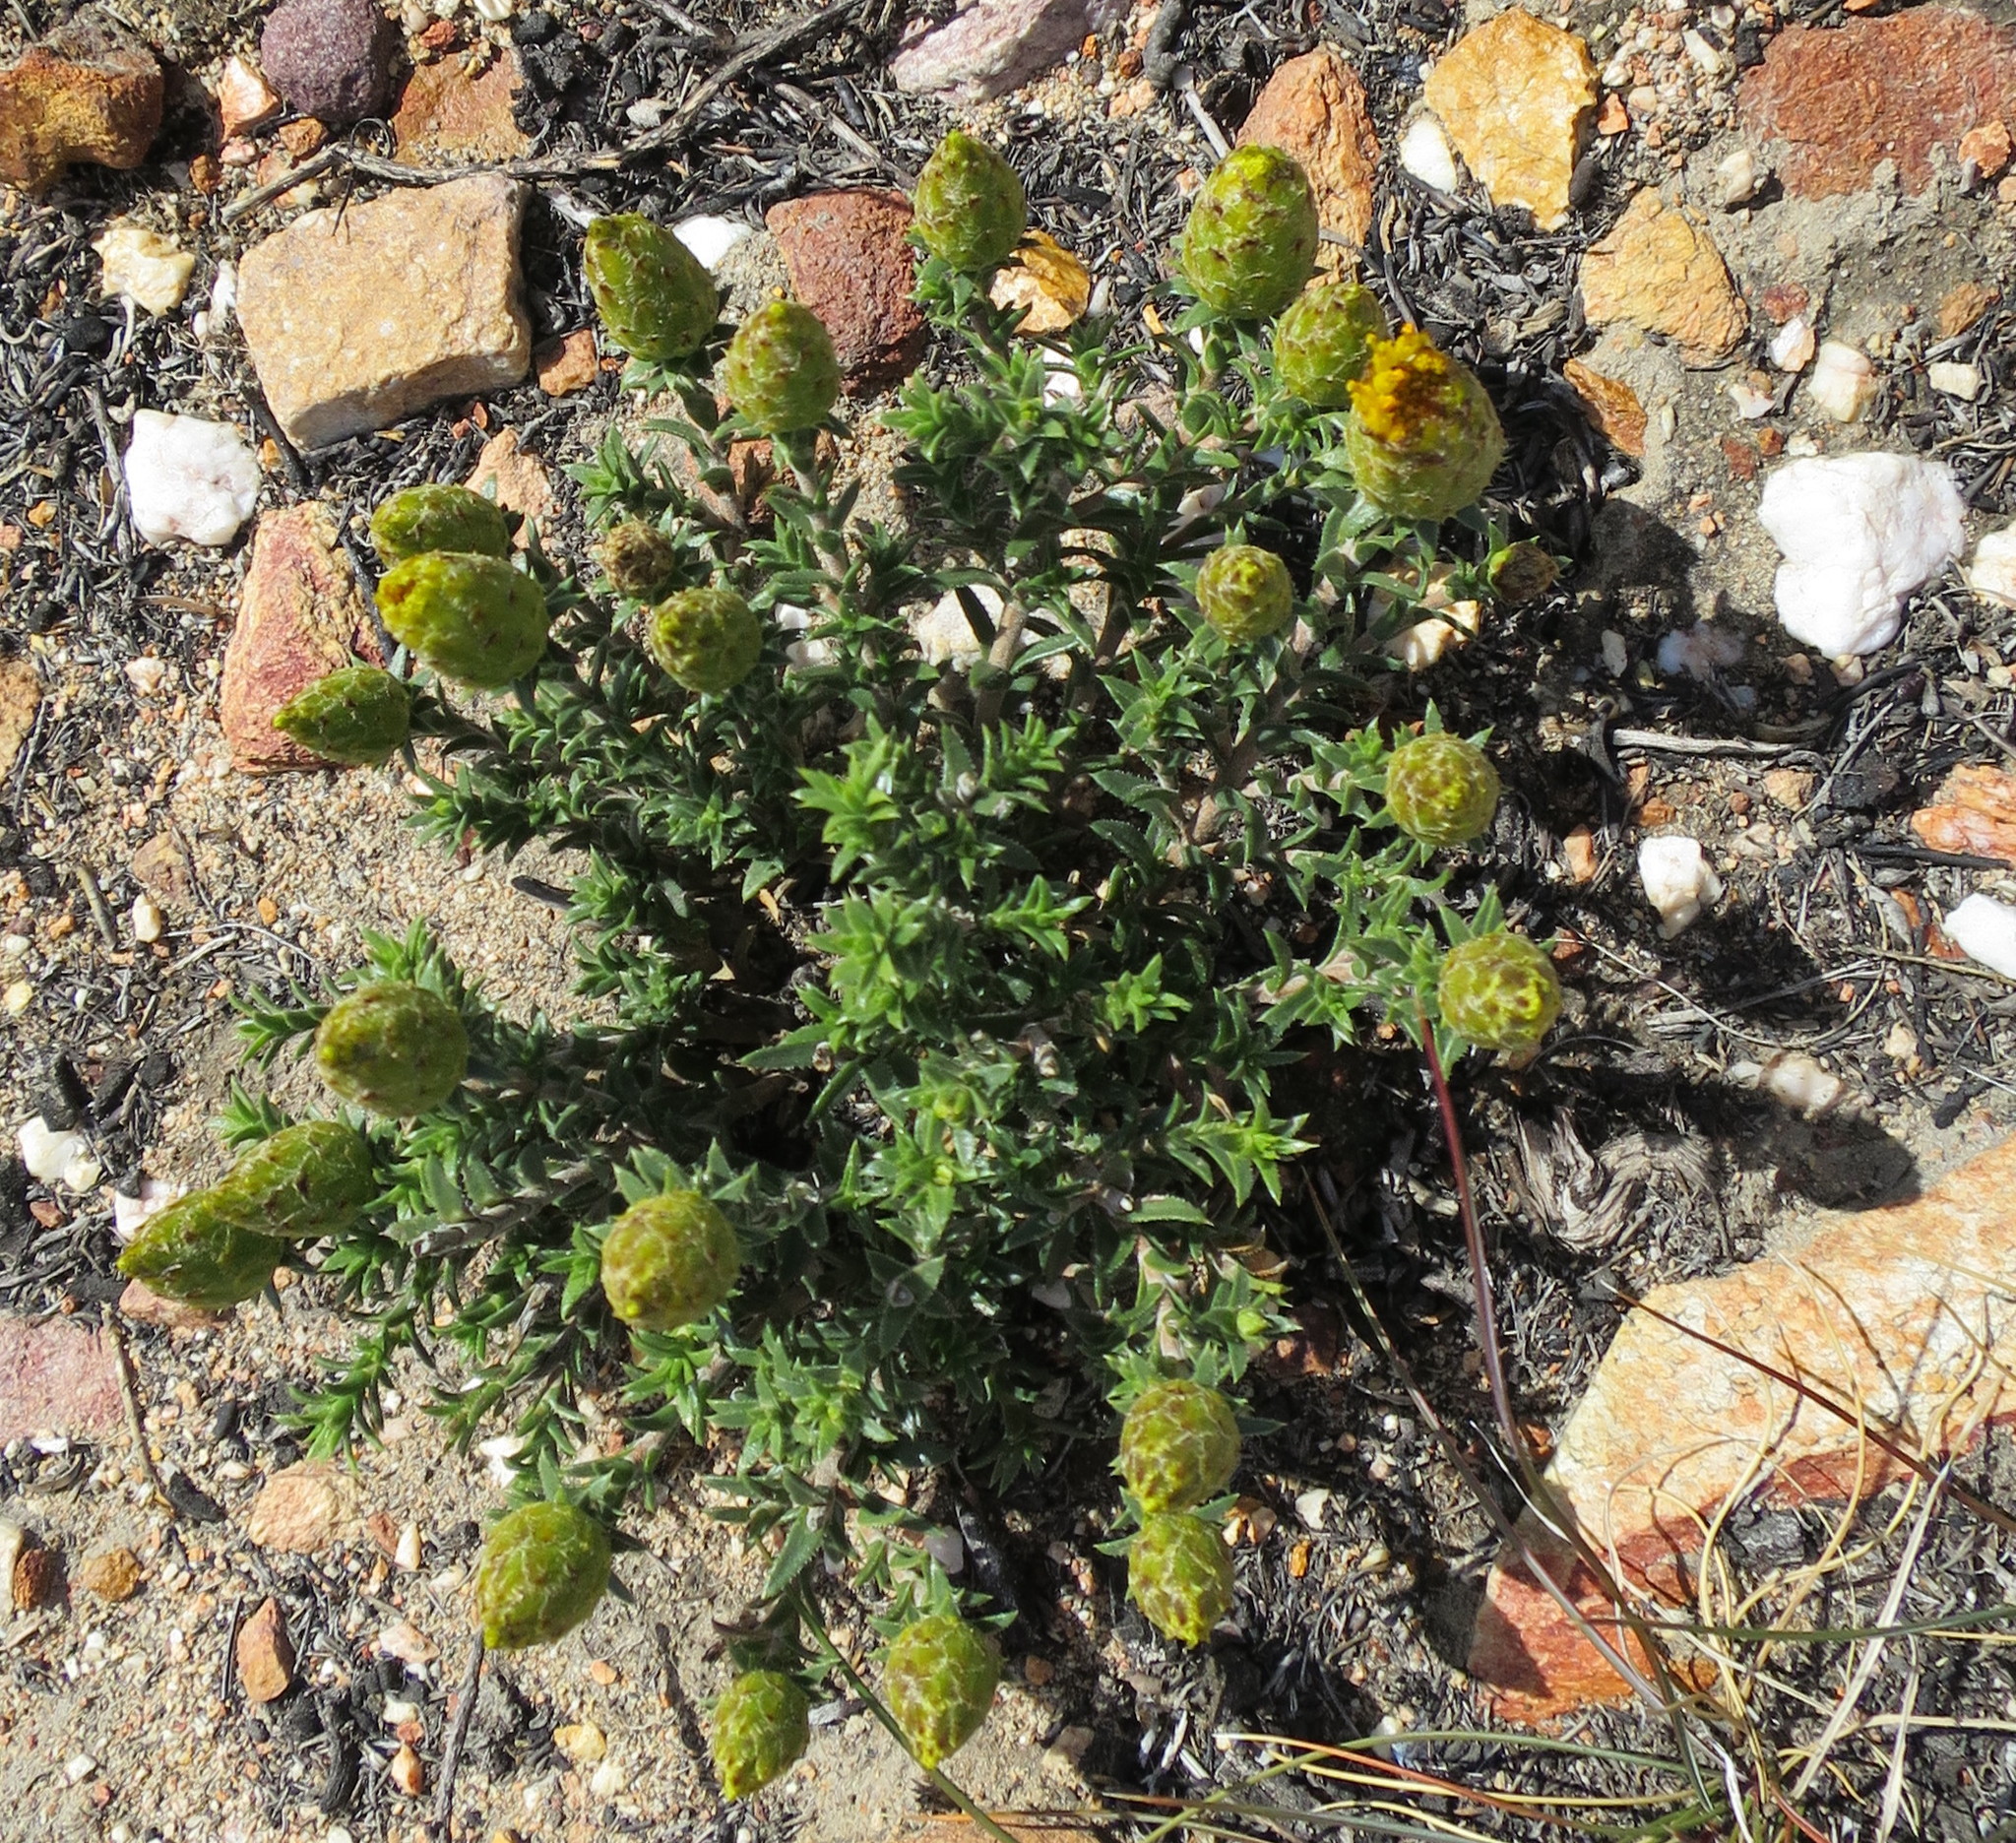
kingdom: Plantae
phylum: Tracheophyta
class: Magnoliopsida
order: Asterales
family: Asteraceae
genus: Pteronia
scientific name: Pteronia elongata
